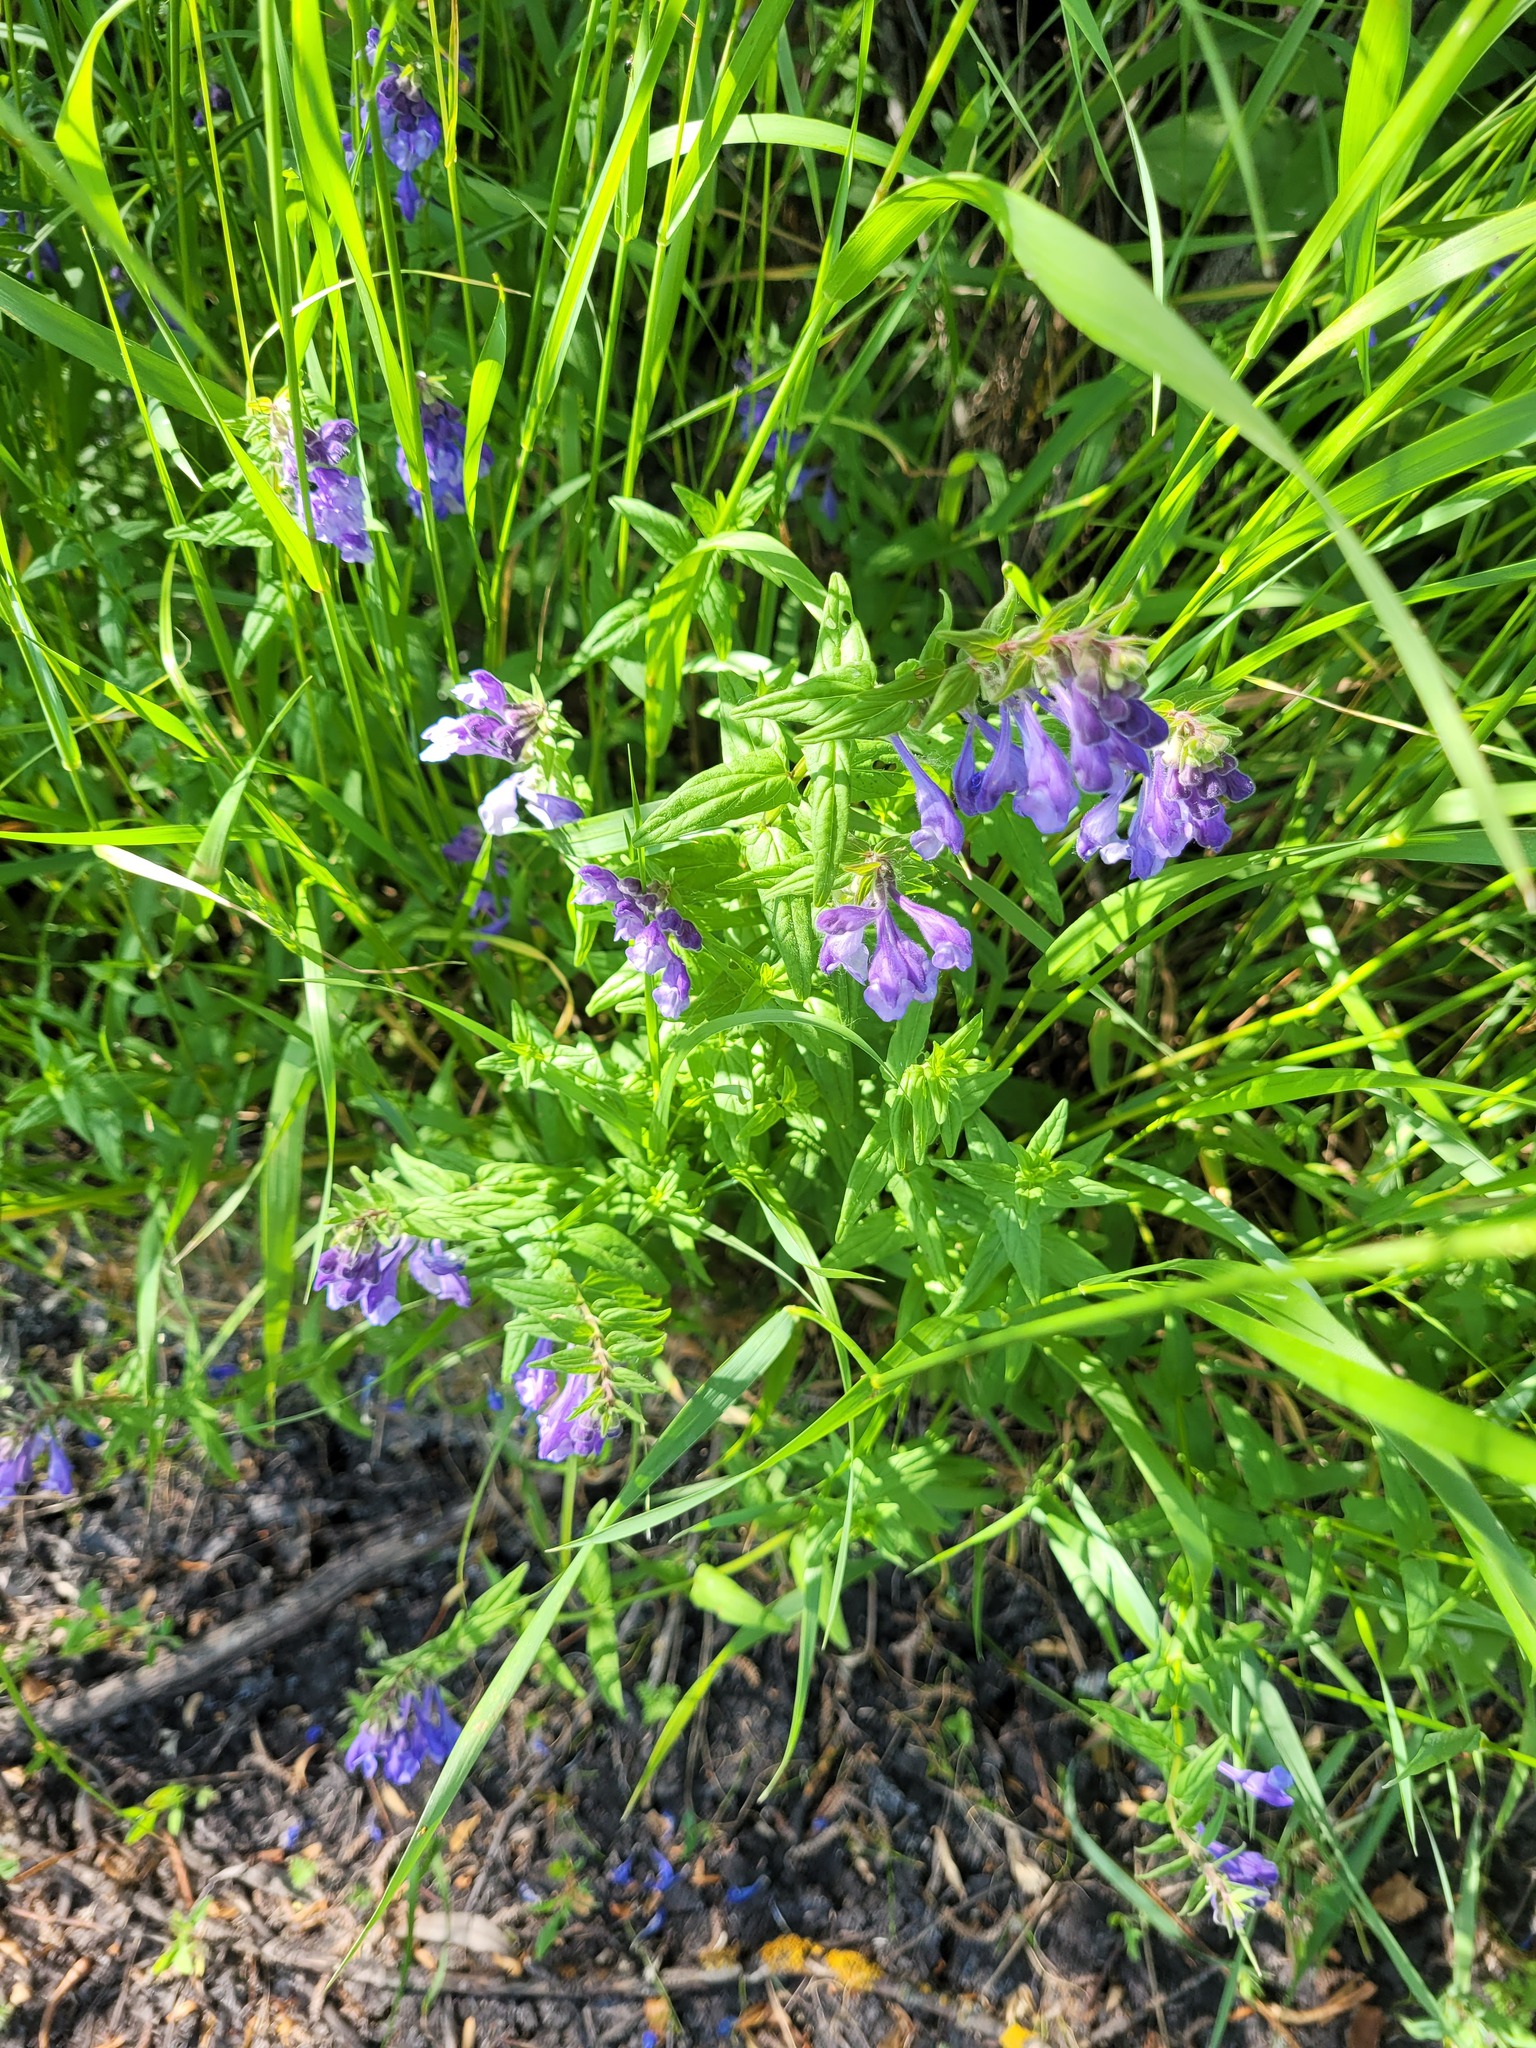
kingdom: Plantae
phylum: Tracheophyta
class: Magnoliopsida
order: Lamiales
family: Lamiaceae
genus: Scutellaria
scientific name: Scutellaria hastifolia
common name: Norfolk skullcap
